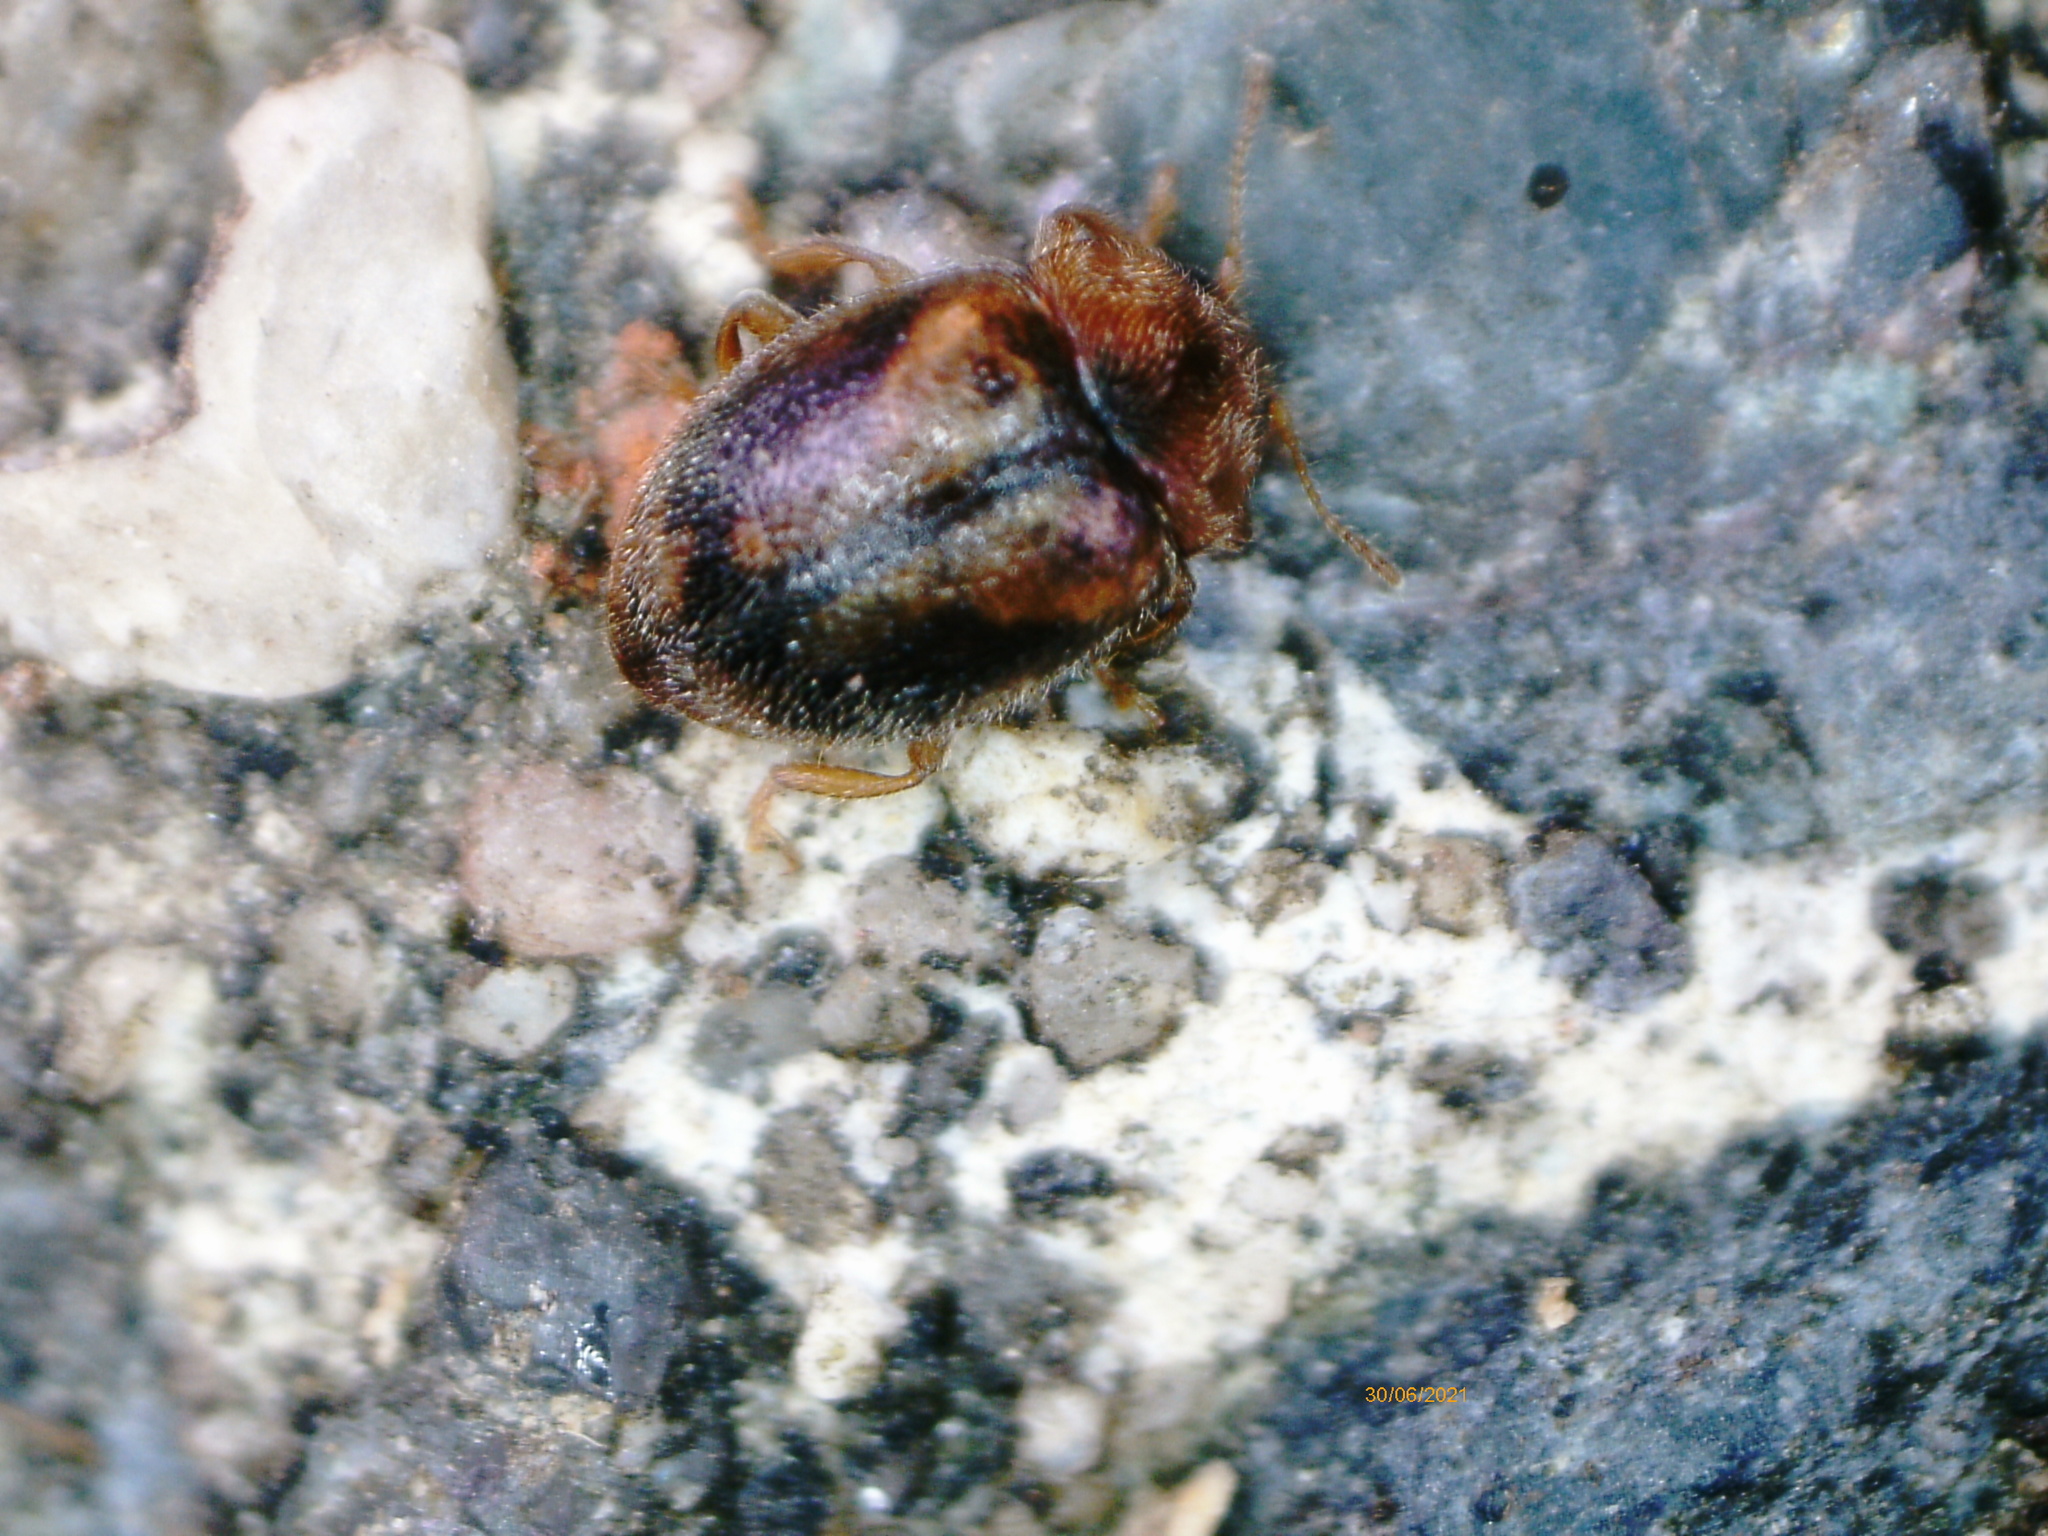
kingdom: Animalia
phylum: Arthropoda
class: Insecta
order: Coleoptera
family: Coccinellidae
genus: Rhyzobius
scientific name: Rhyzobius
